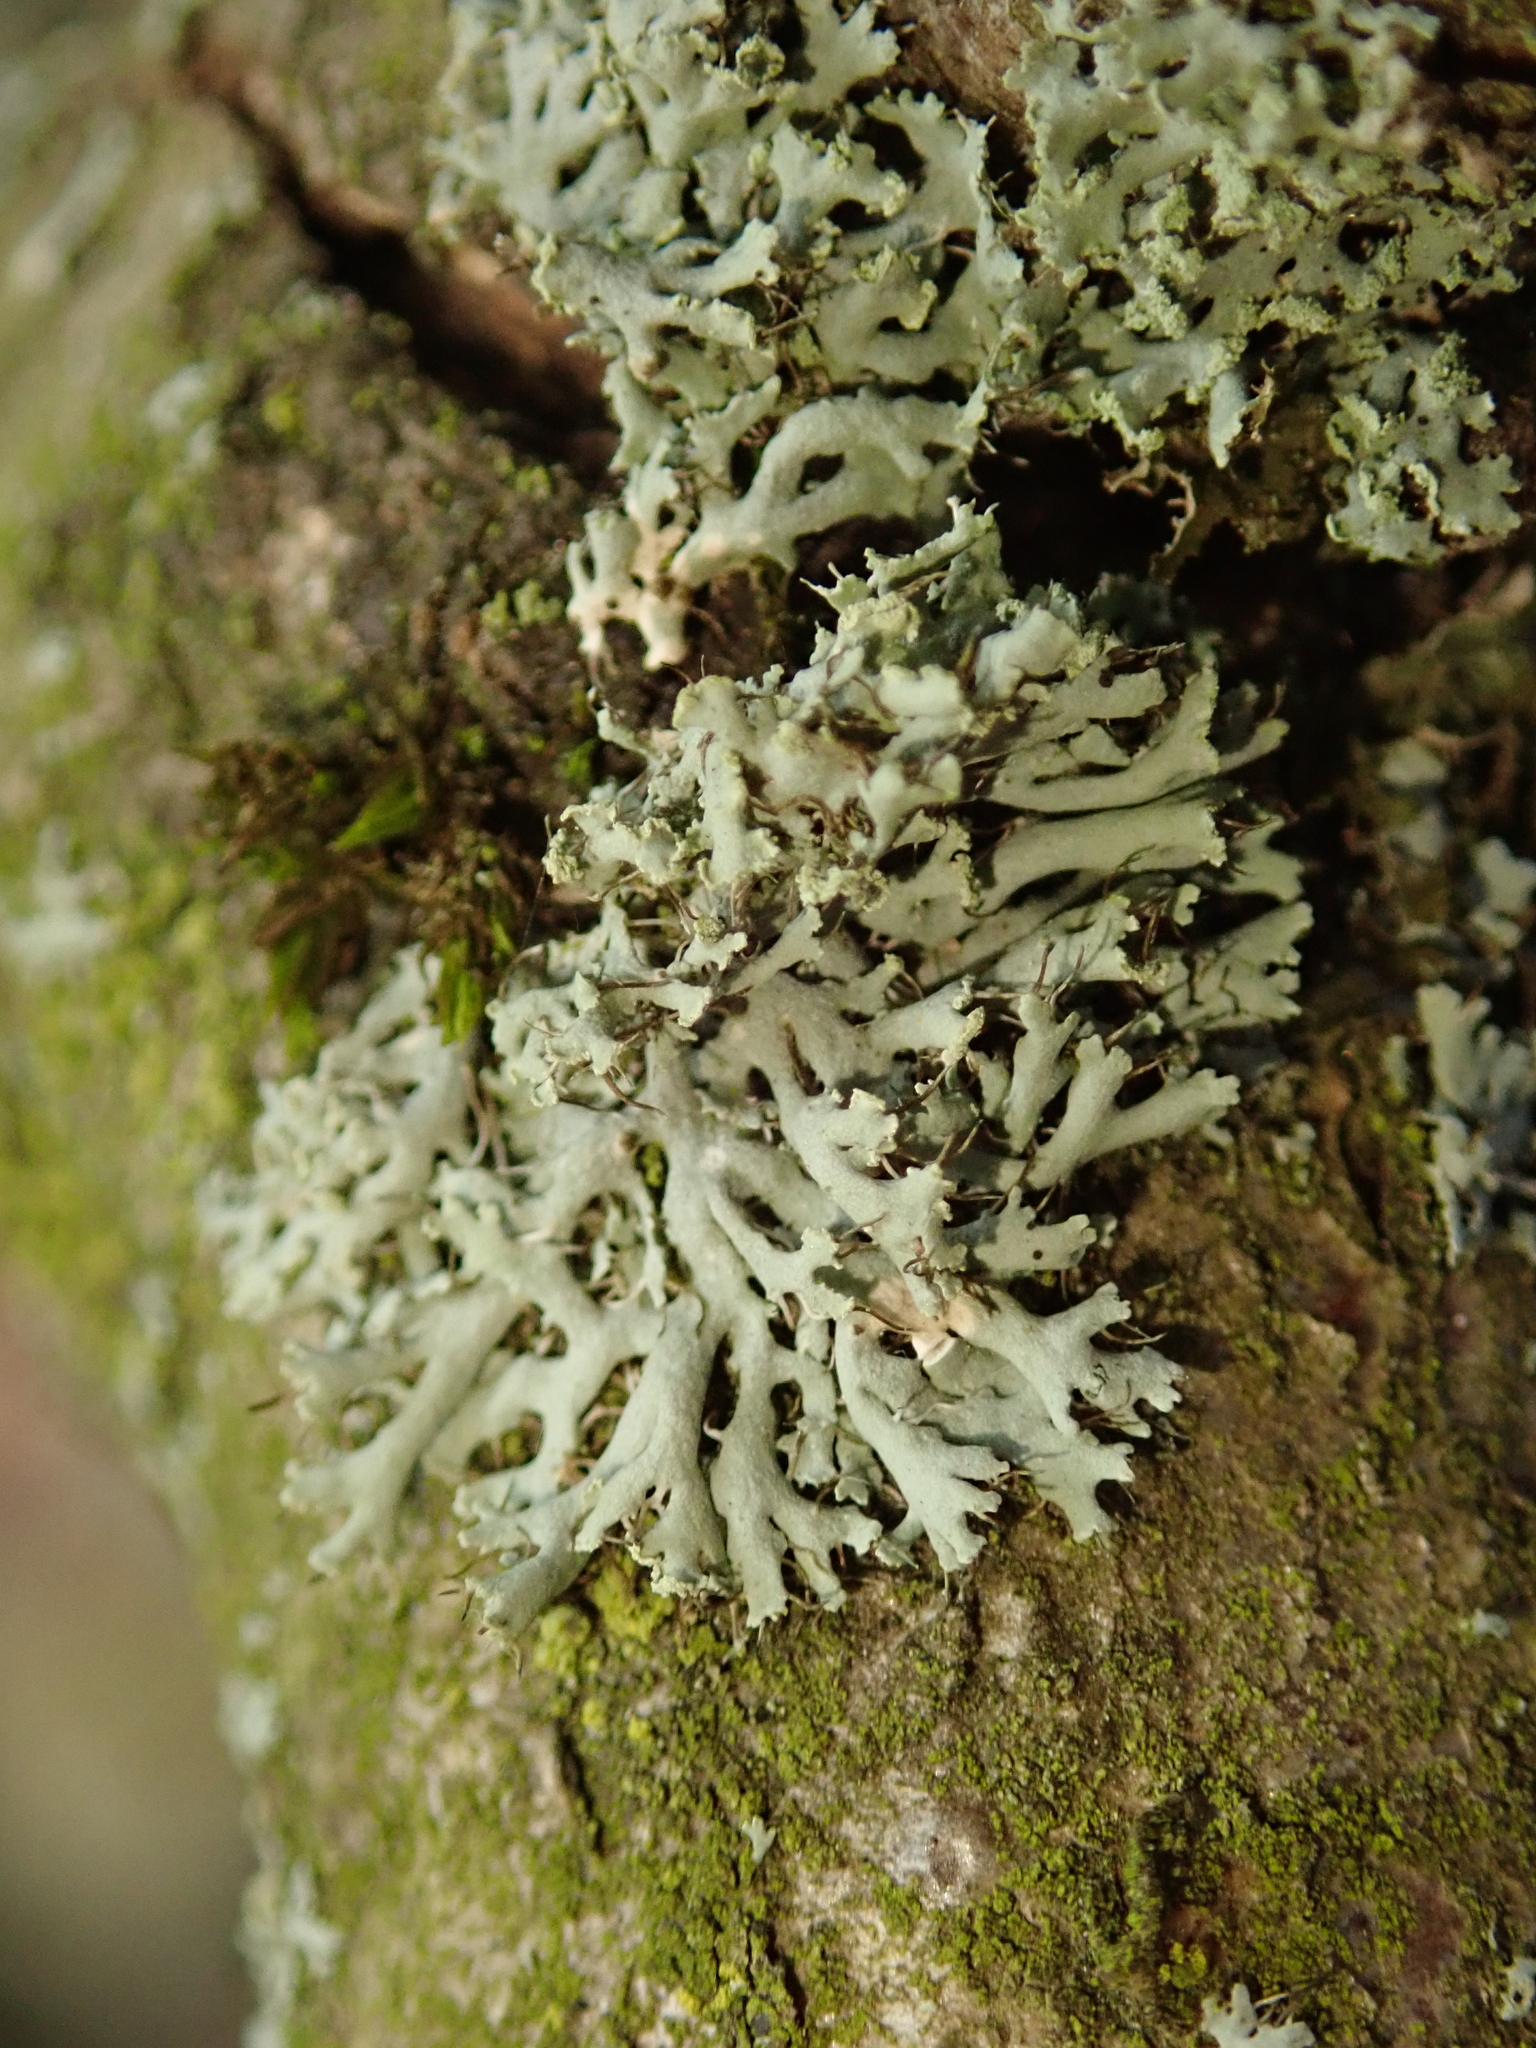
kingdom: Fungi
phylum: Ascomycota
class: Lecanoromycetes
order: Caliciales
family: Physciaceae
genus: Physcia
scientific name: Physcia adscendens
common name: Hooded rosette lichen
